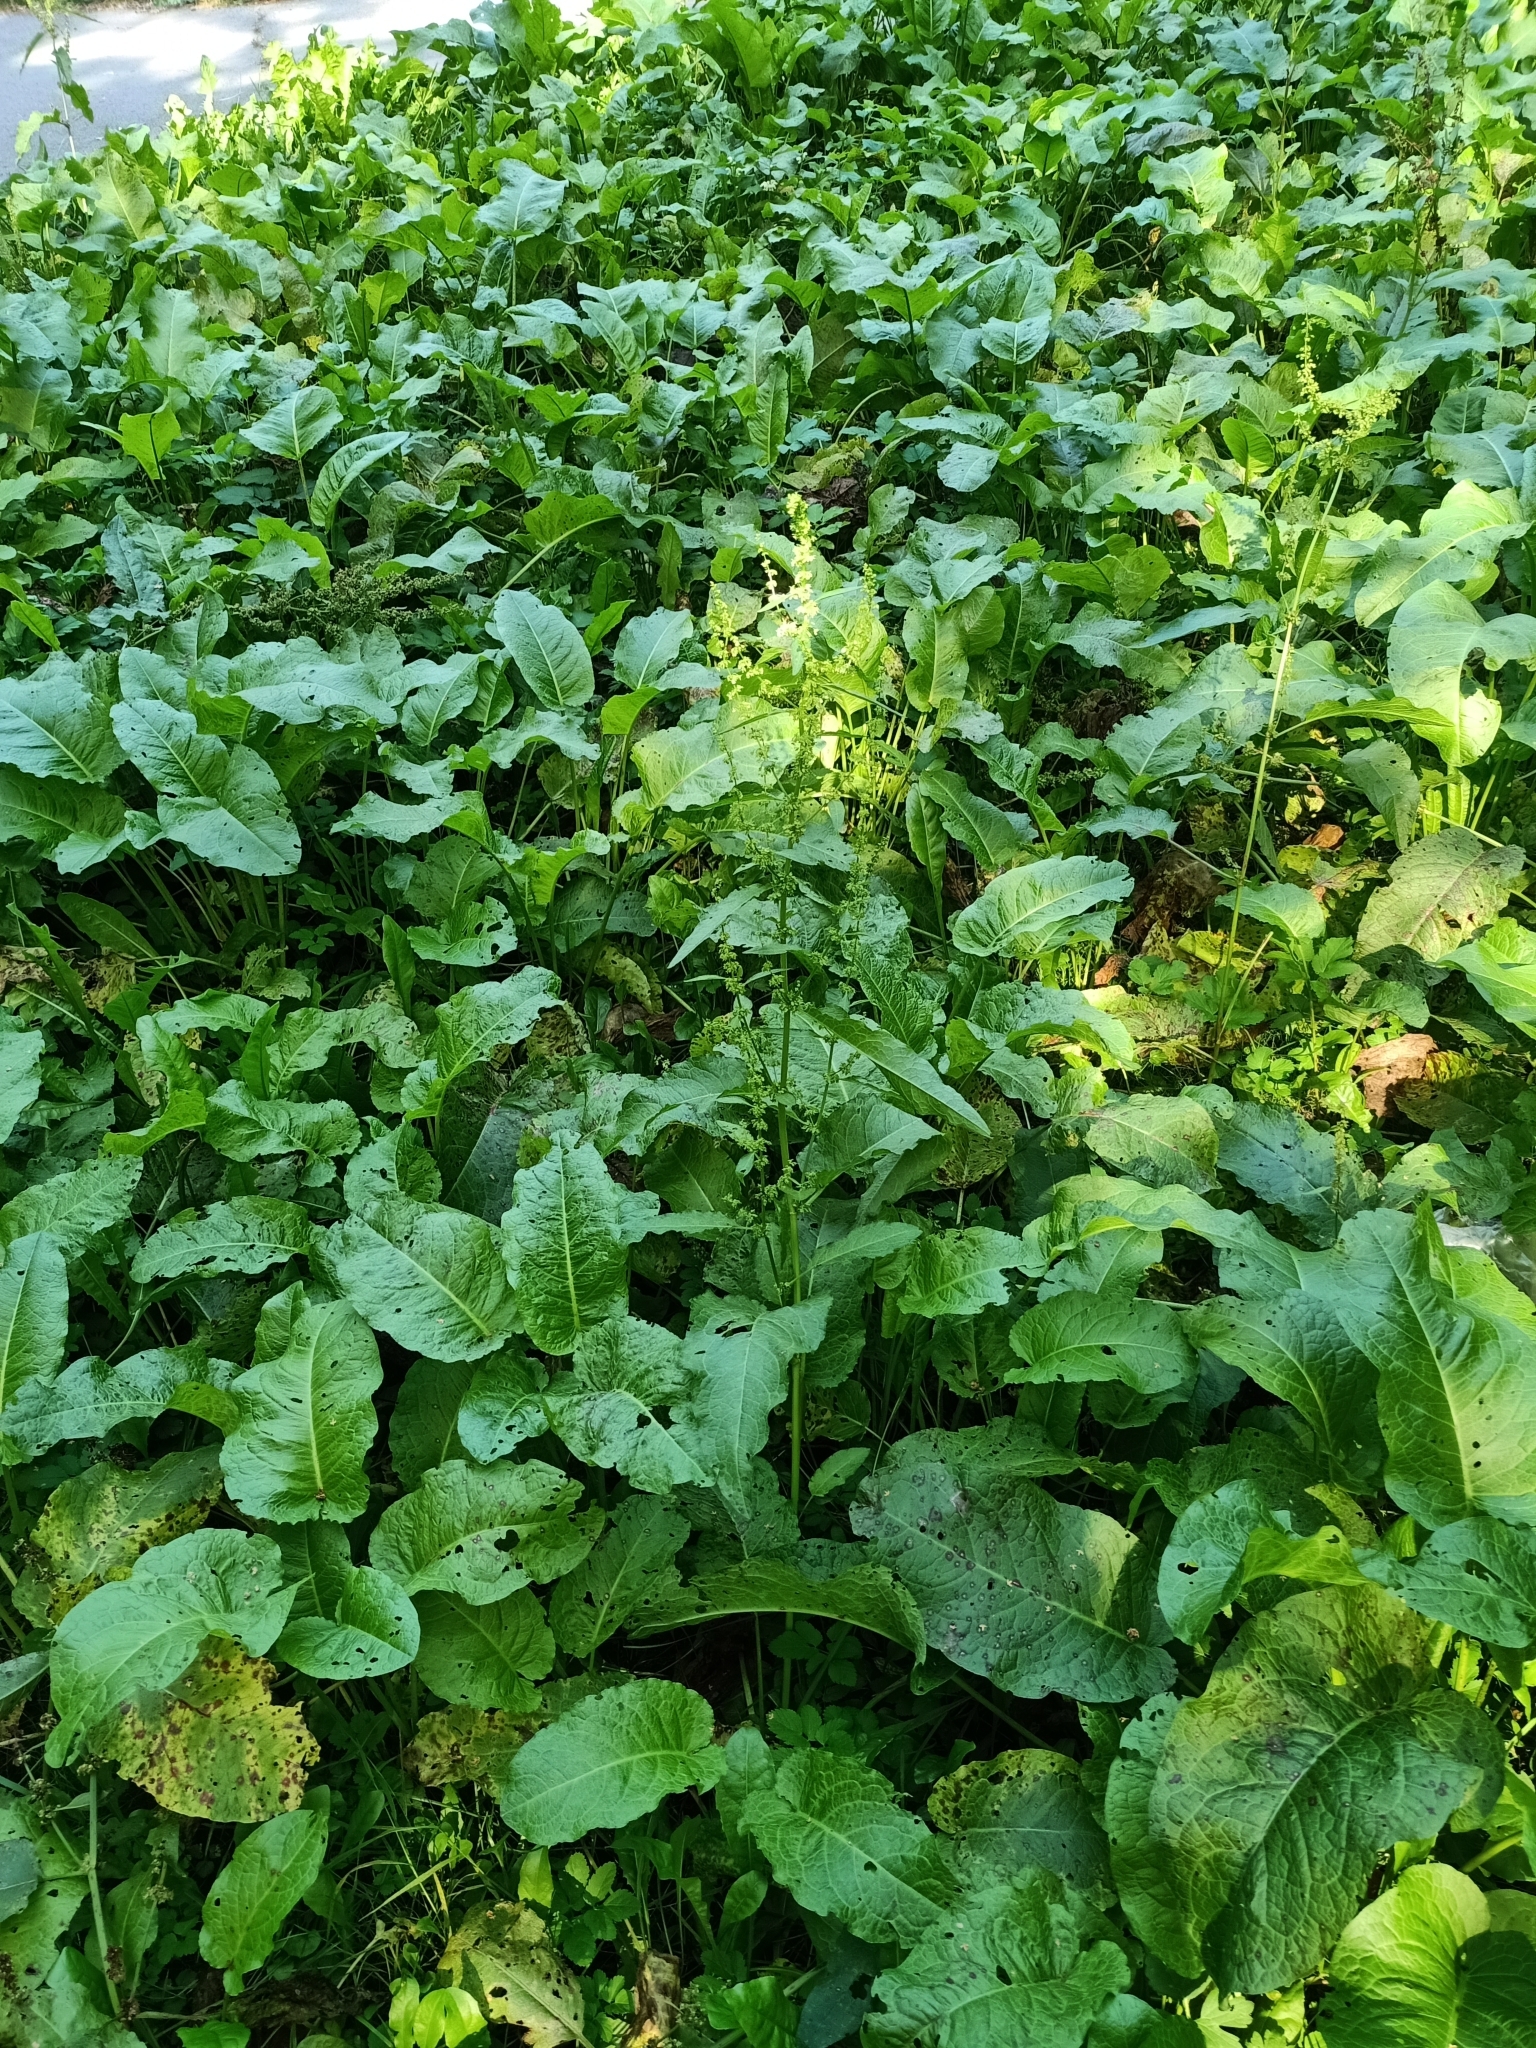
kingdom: Plantae
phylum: Tracheophyta
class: Magnoliopsida
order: Caryophyllales
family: Polygonaceae
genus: Rumex
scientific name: Rumex obtusifolius
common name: Bitter dock
